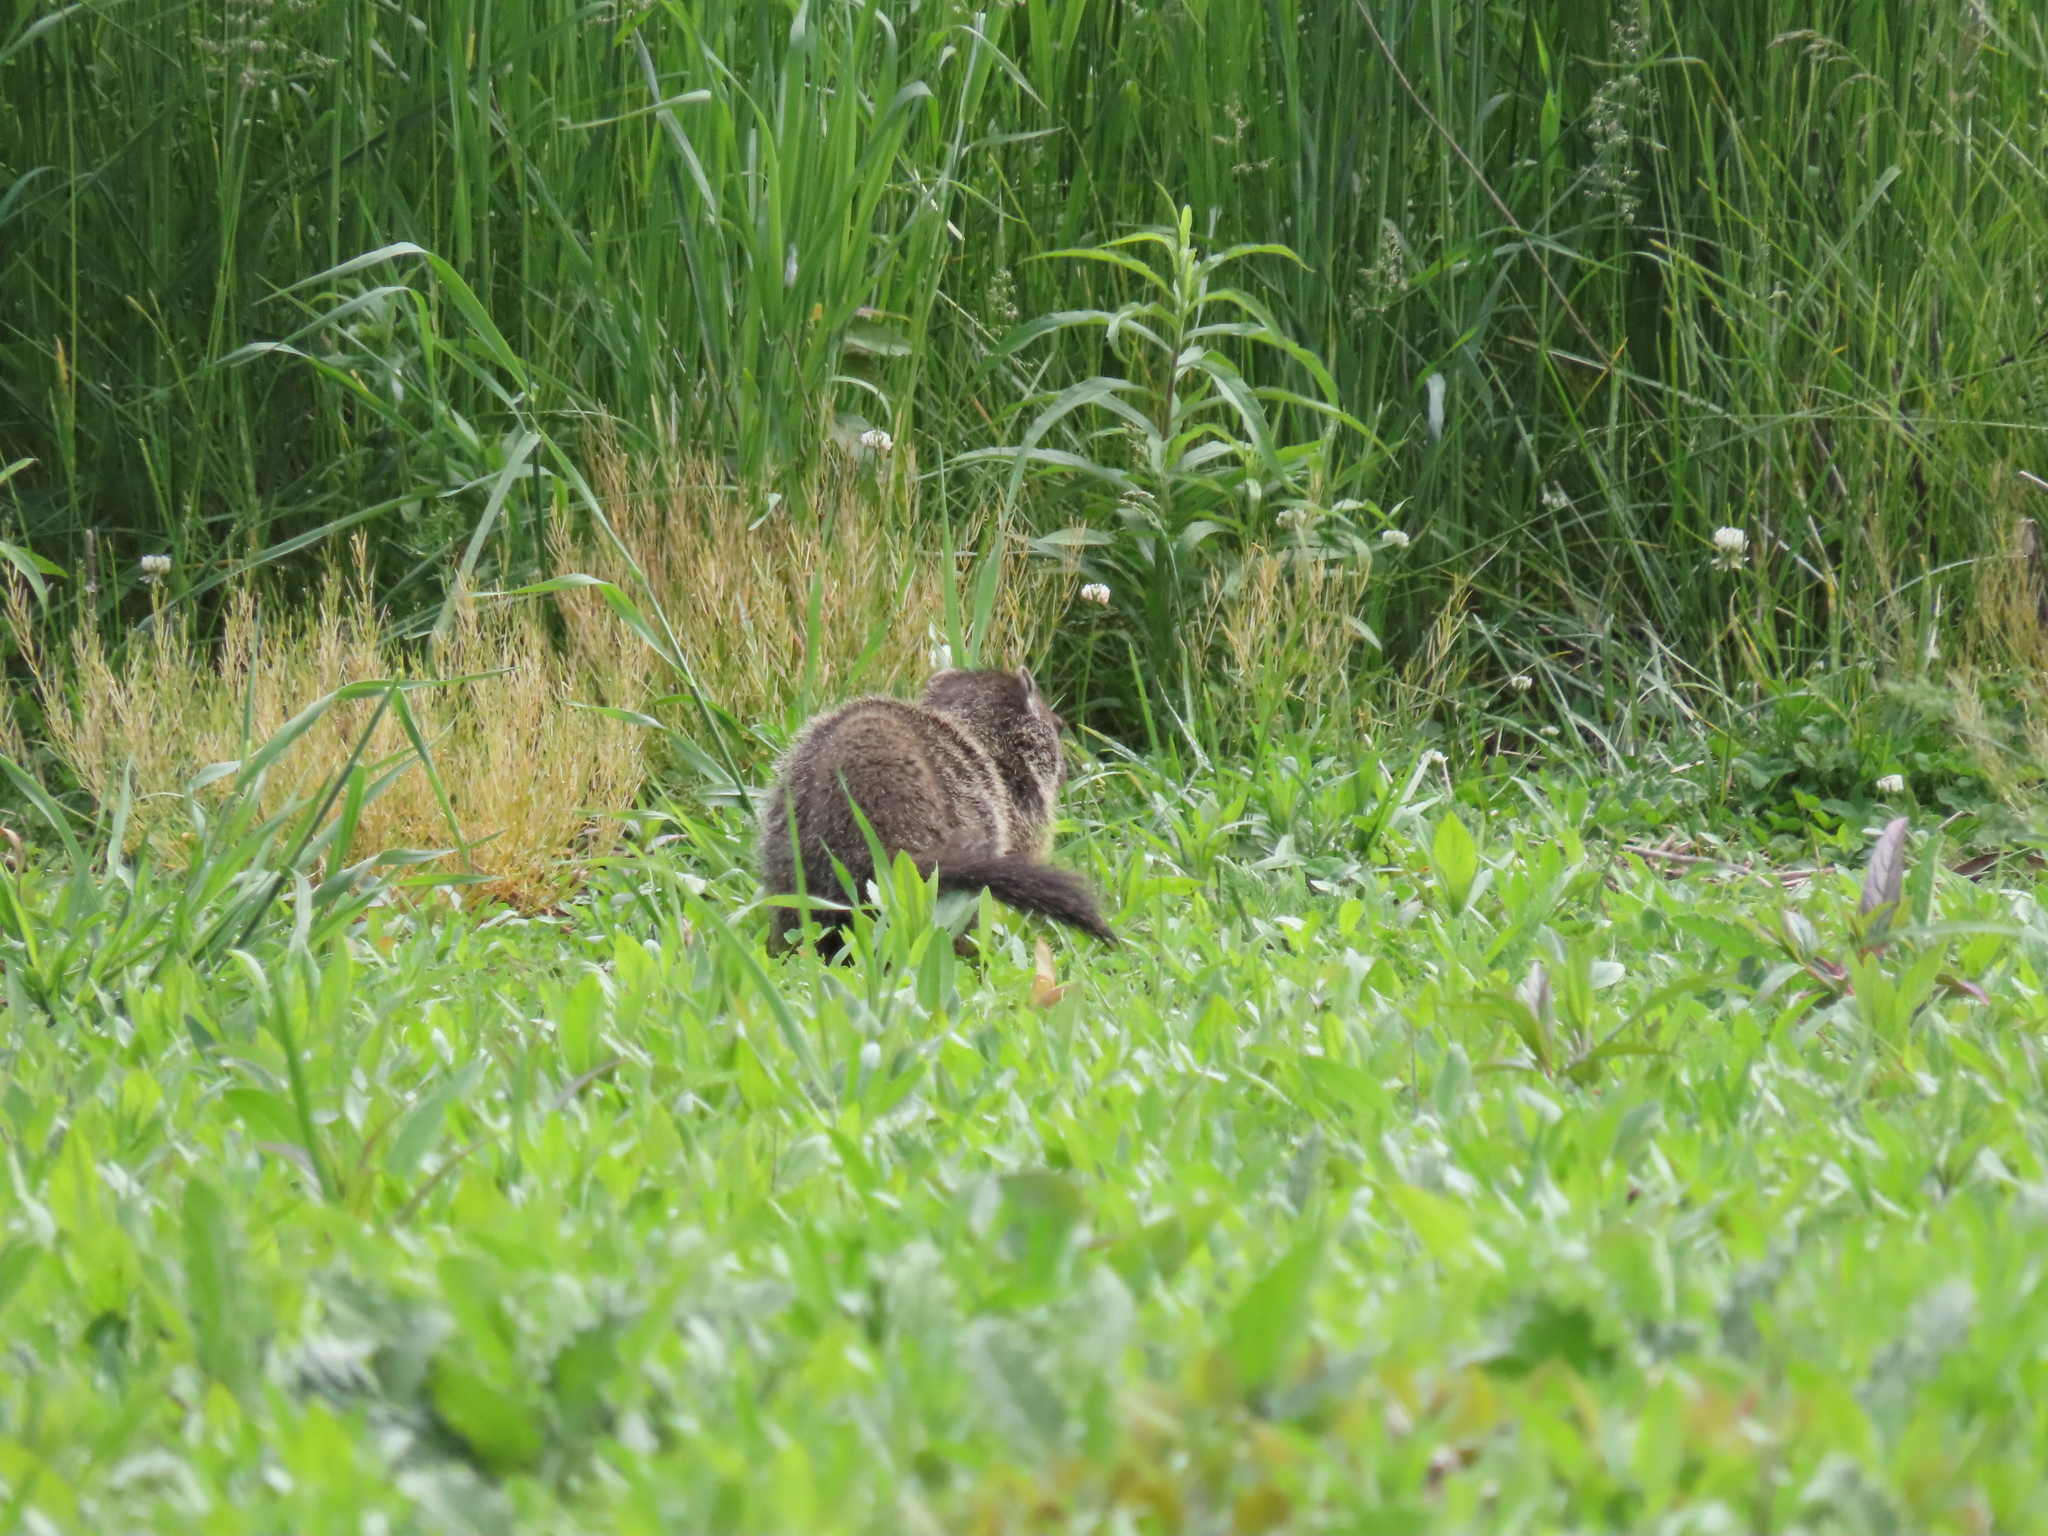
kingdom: Animalia
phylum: Chordata
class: Mammalia
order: Rodentia
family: Sciuridae
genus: Marmota
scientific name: Marmota monax
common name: Groundhog
